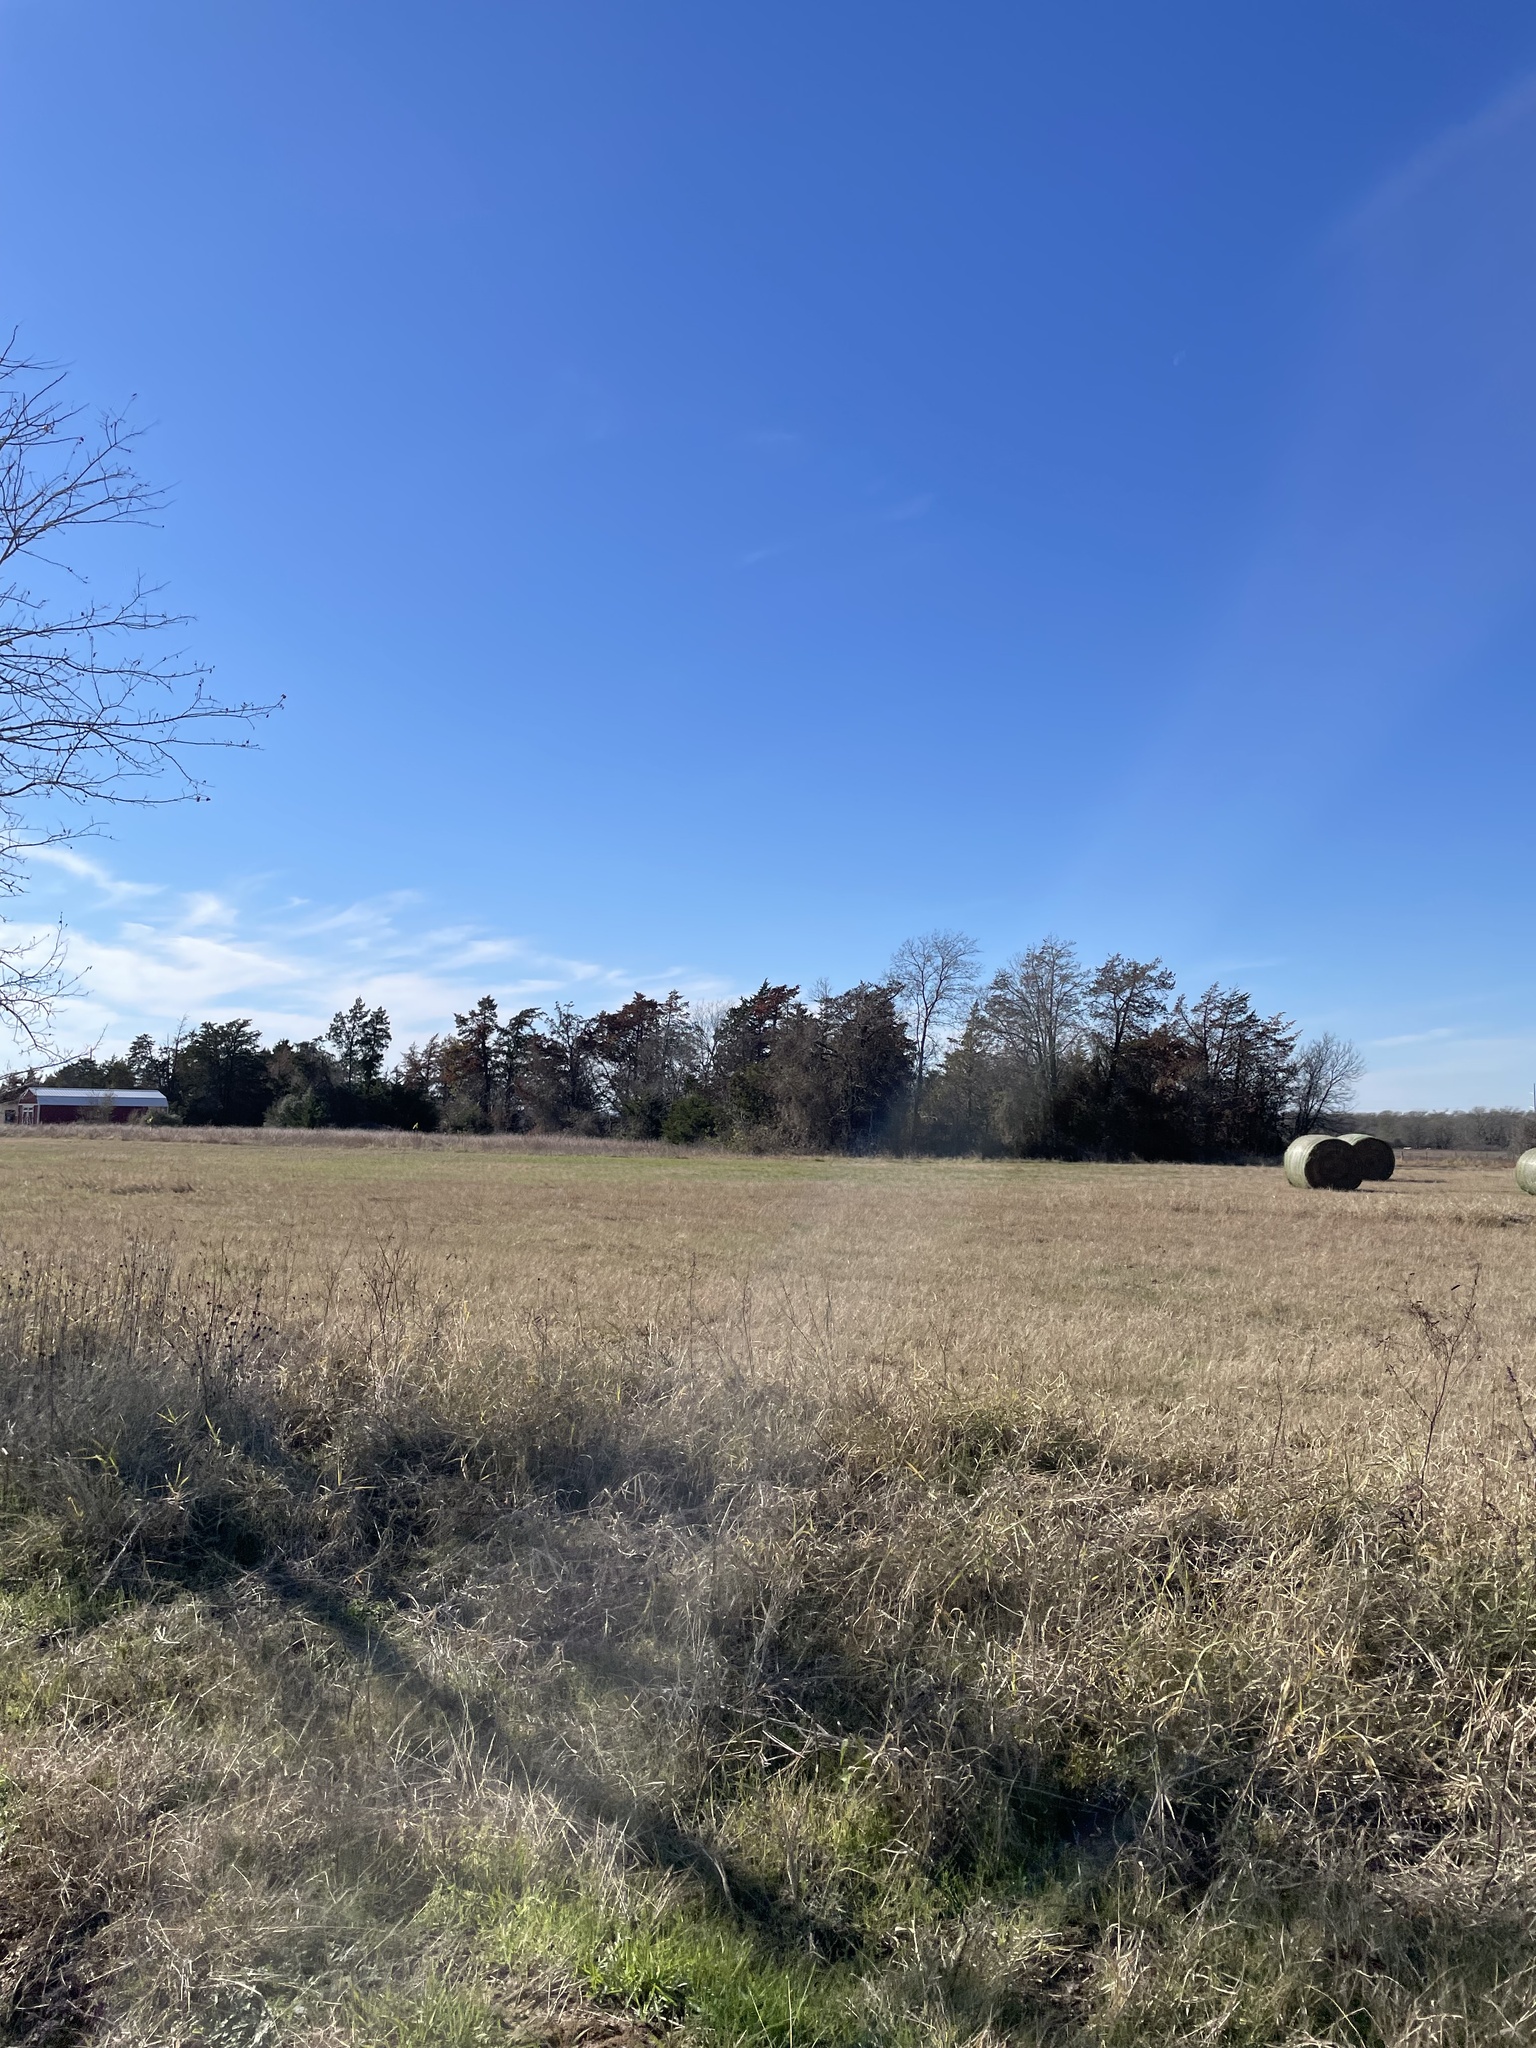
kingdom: Plantae
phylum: Tracheophyta
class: Pinopsida
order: Pinales
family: Cupressaceae
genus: Juniperus
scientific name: Juniperus virginiana
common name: Red juniper
